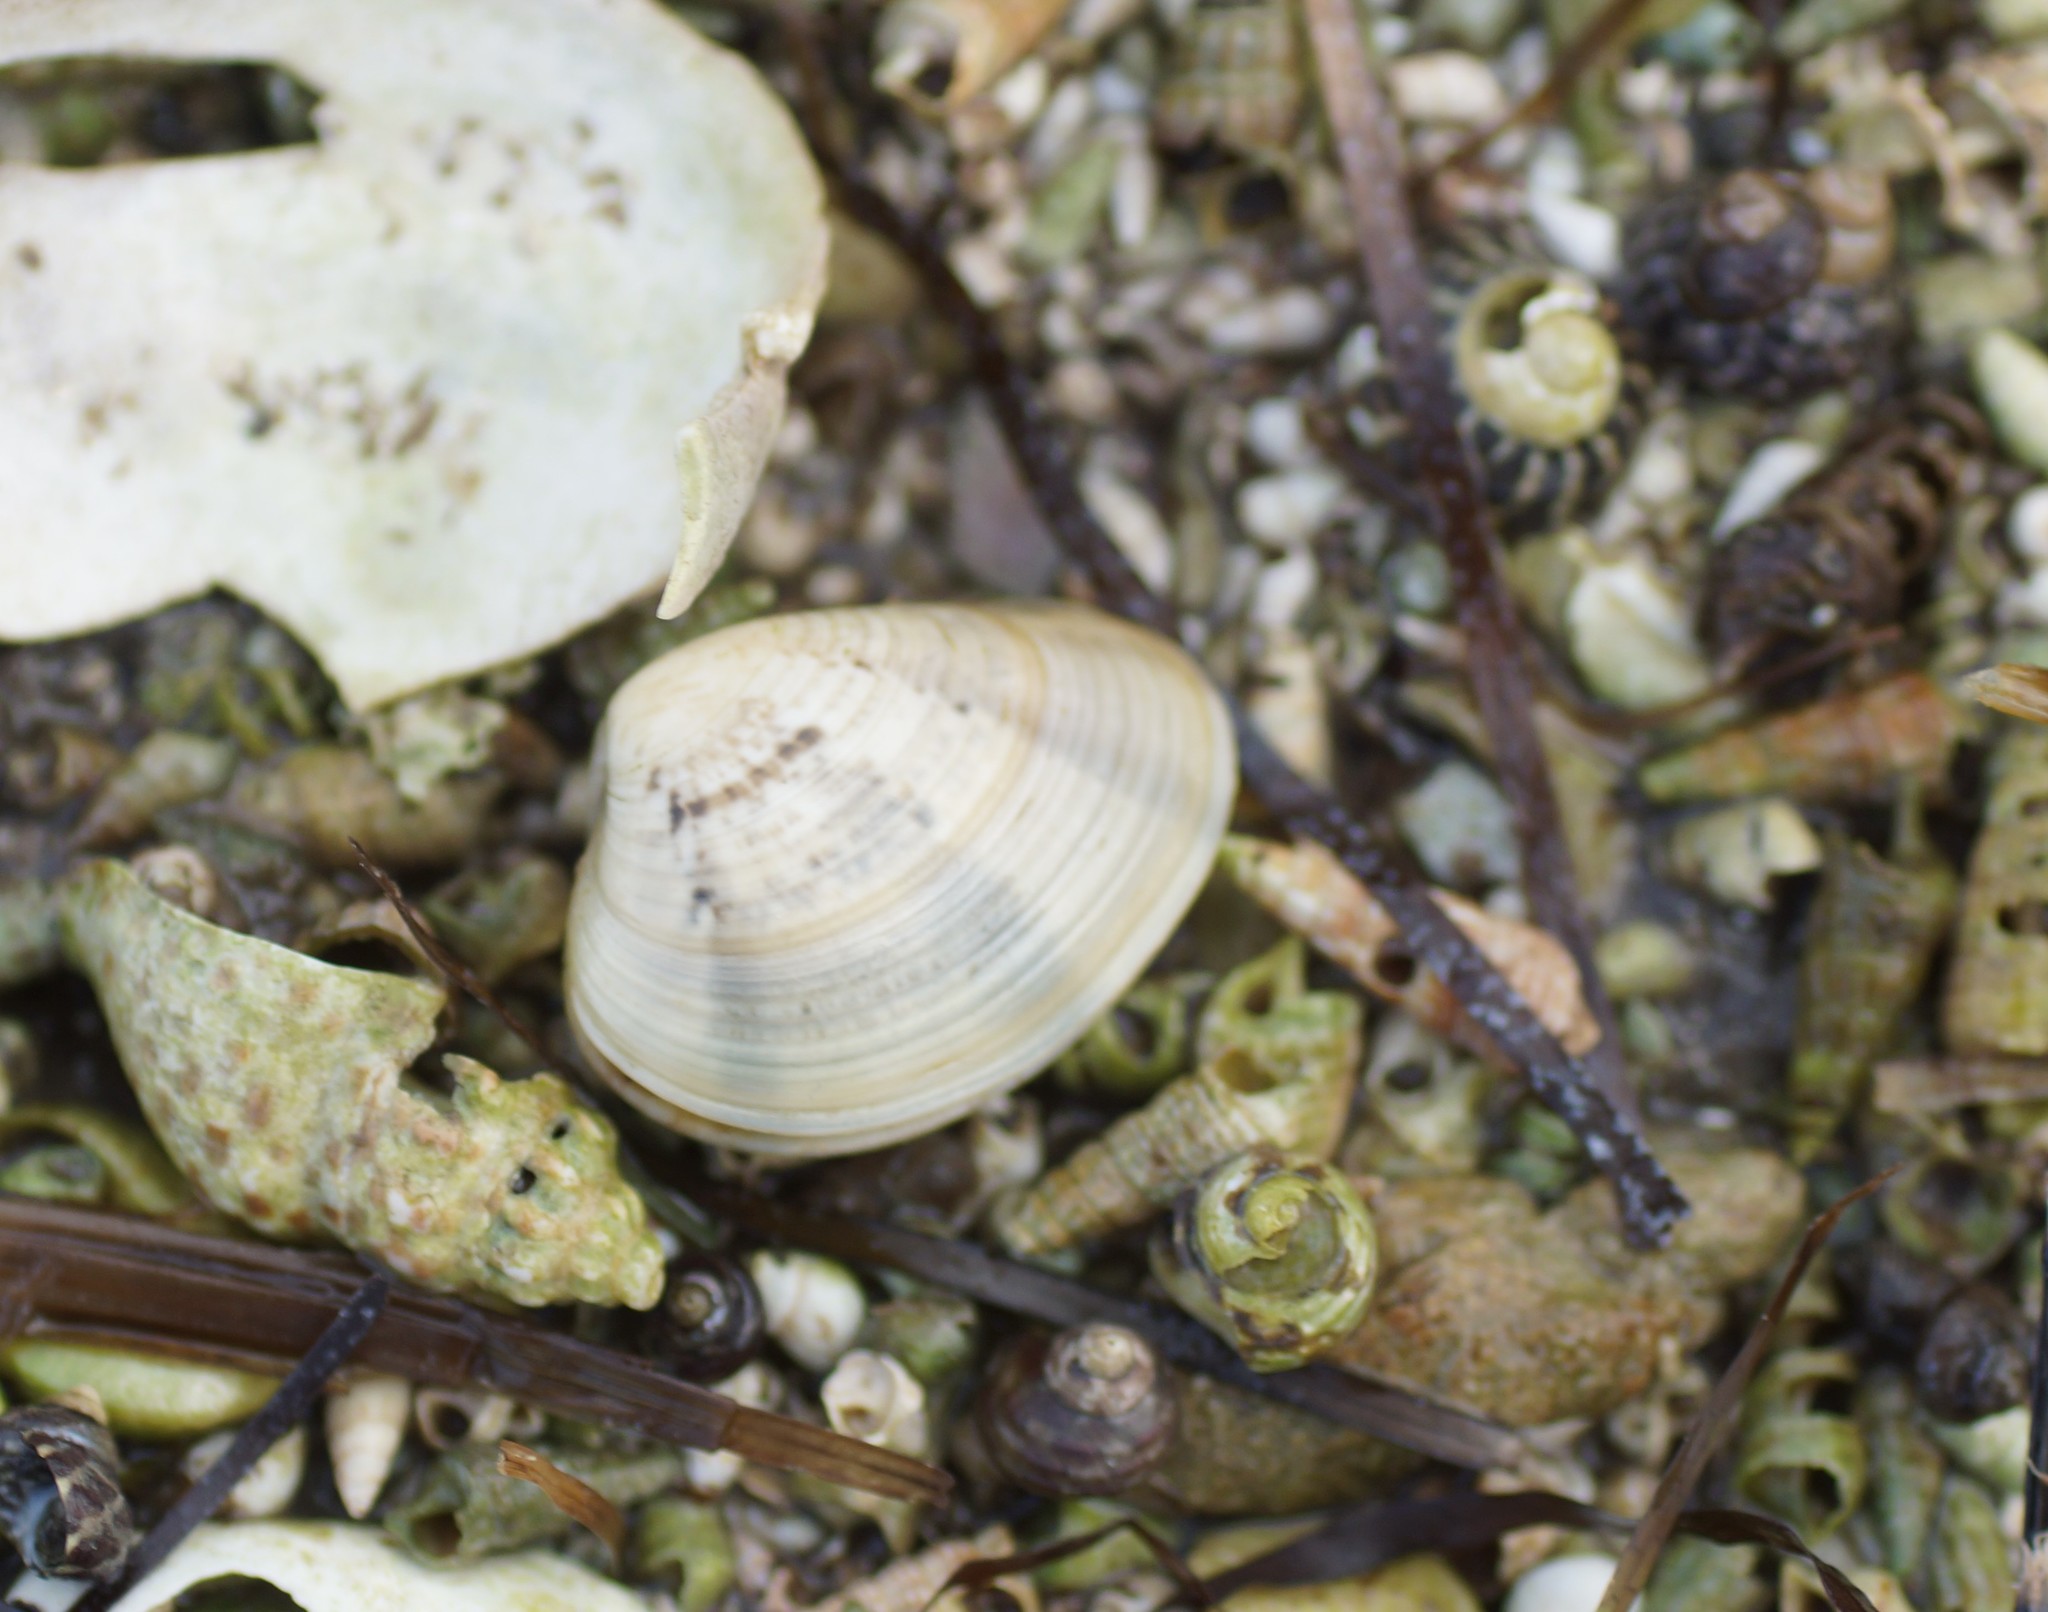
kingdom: Animalia
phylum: Mollusca
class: Bivalvia
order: Venerida
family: Veneridae
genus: Eumarcia
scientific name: Eumarcia fumigata
